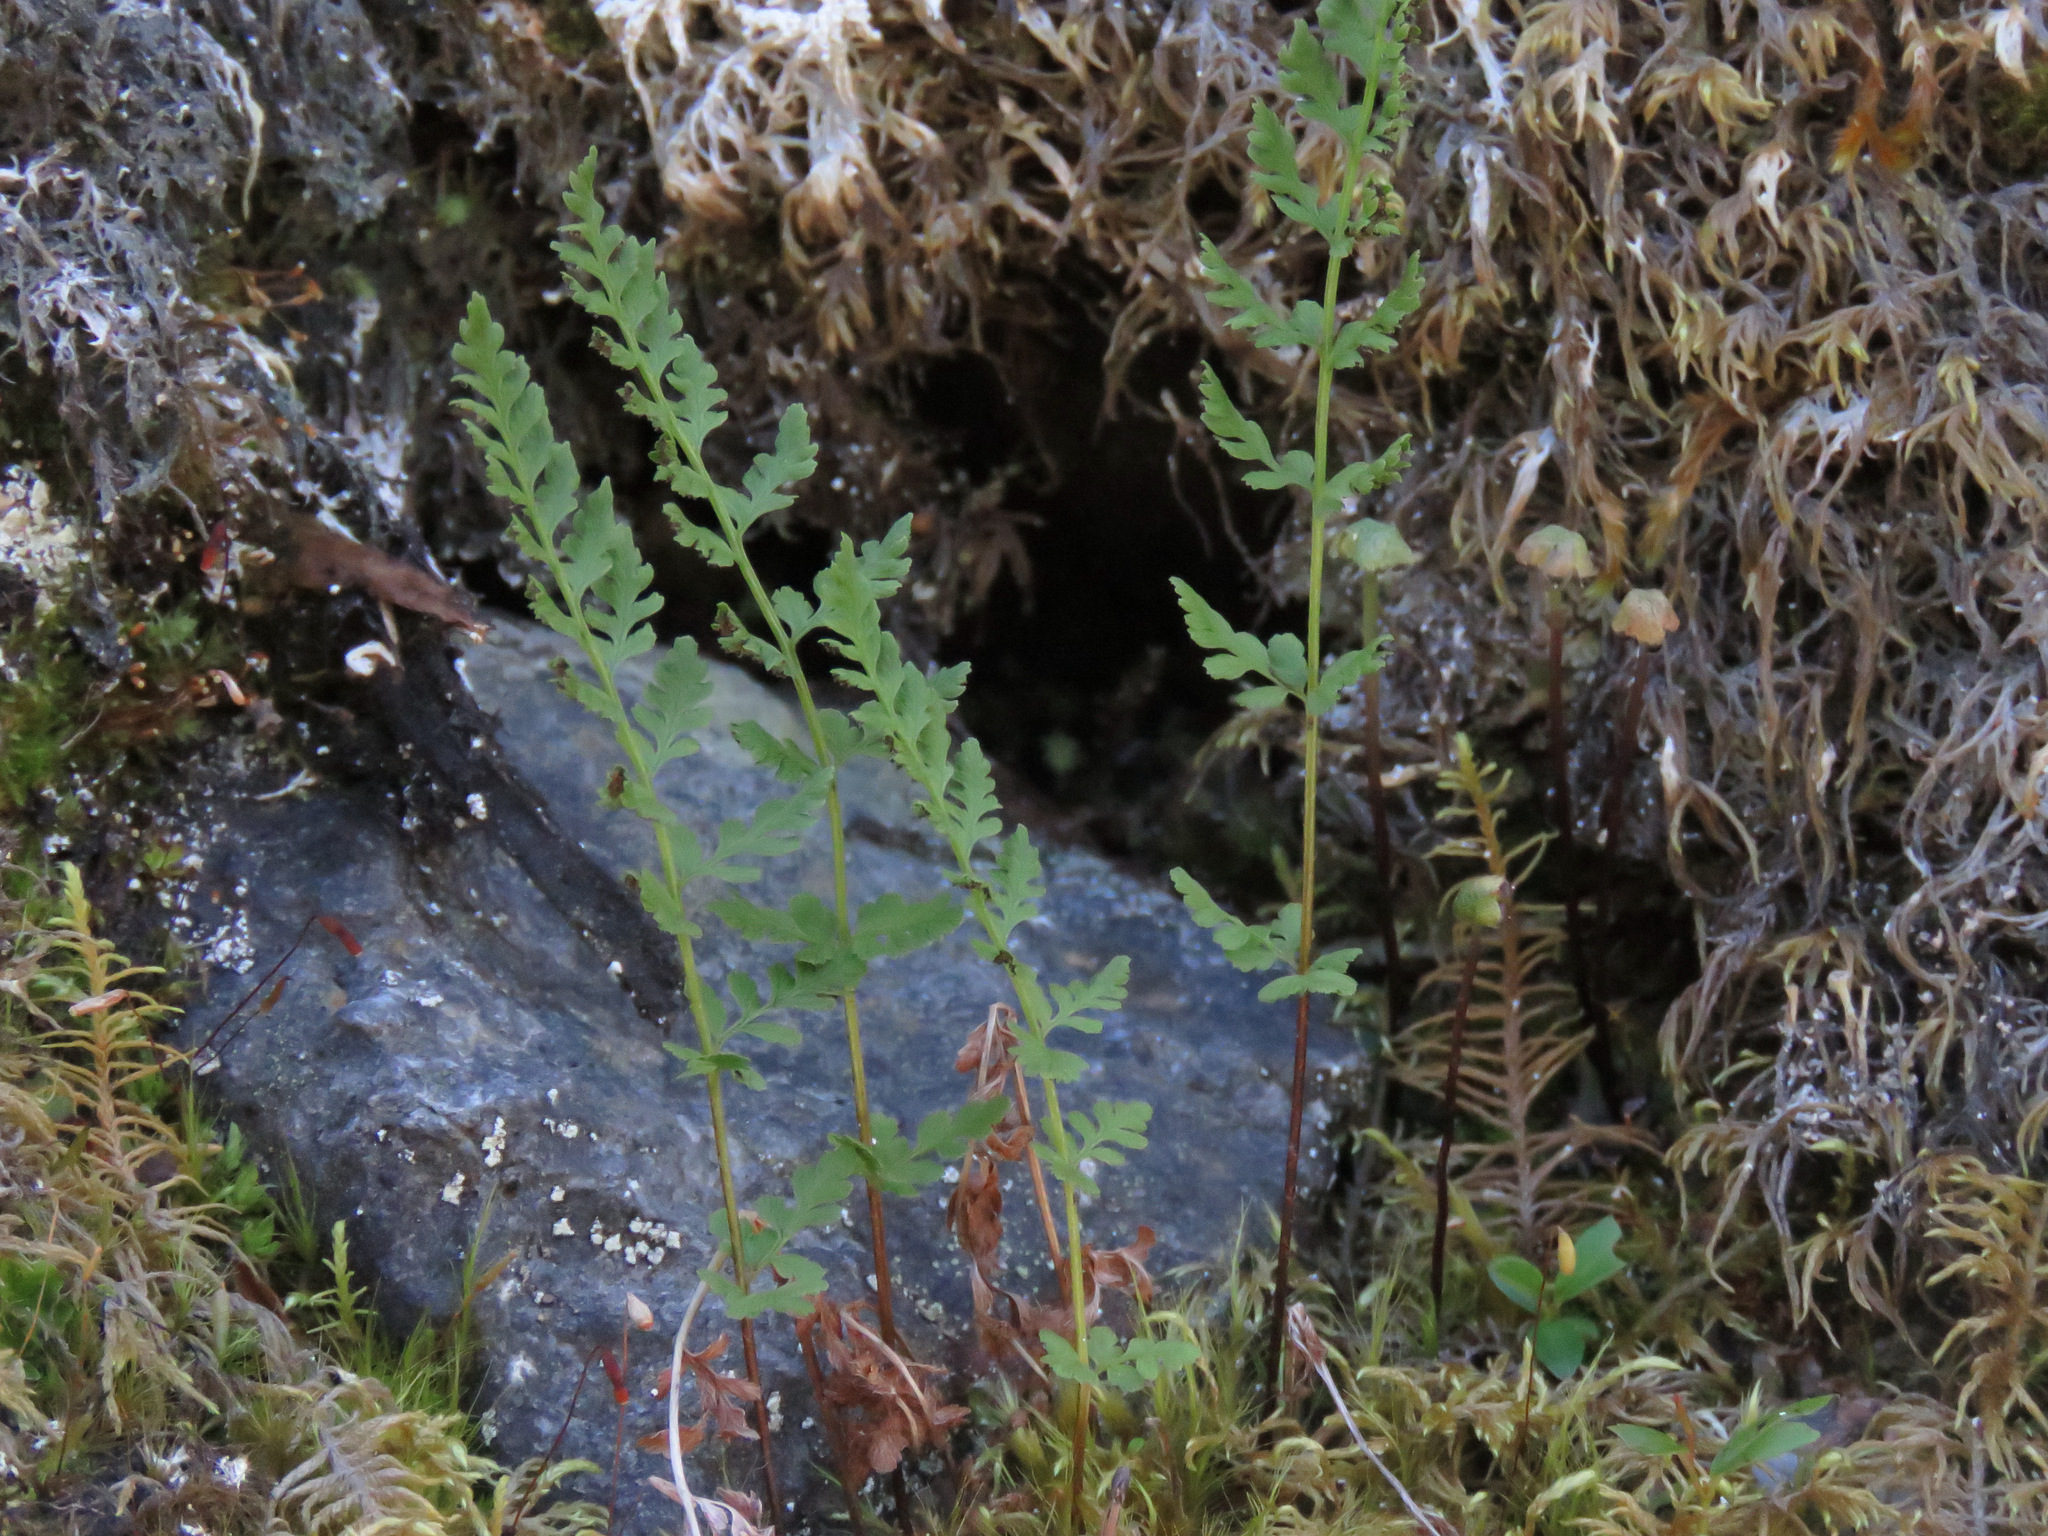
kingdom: Plantae
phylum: Tracheophyta
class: Polypodiopsida
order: Polypodiales
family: Cystopteridaceae
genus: Cystopteris
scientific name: Cystopteris fragilis
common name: Brittle bladder fern
